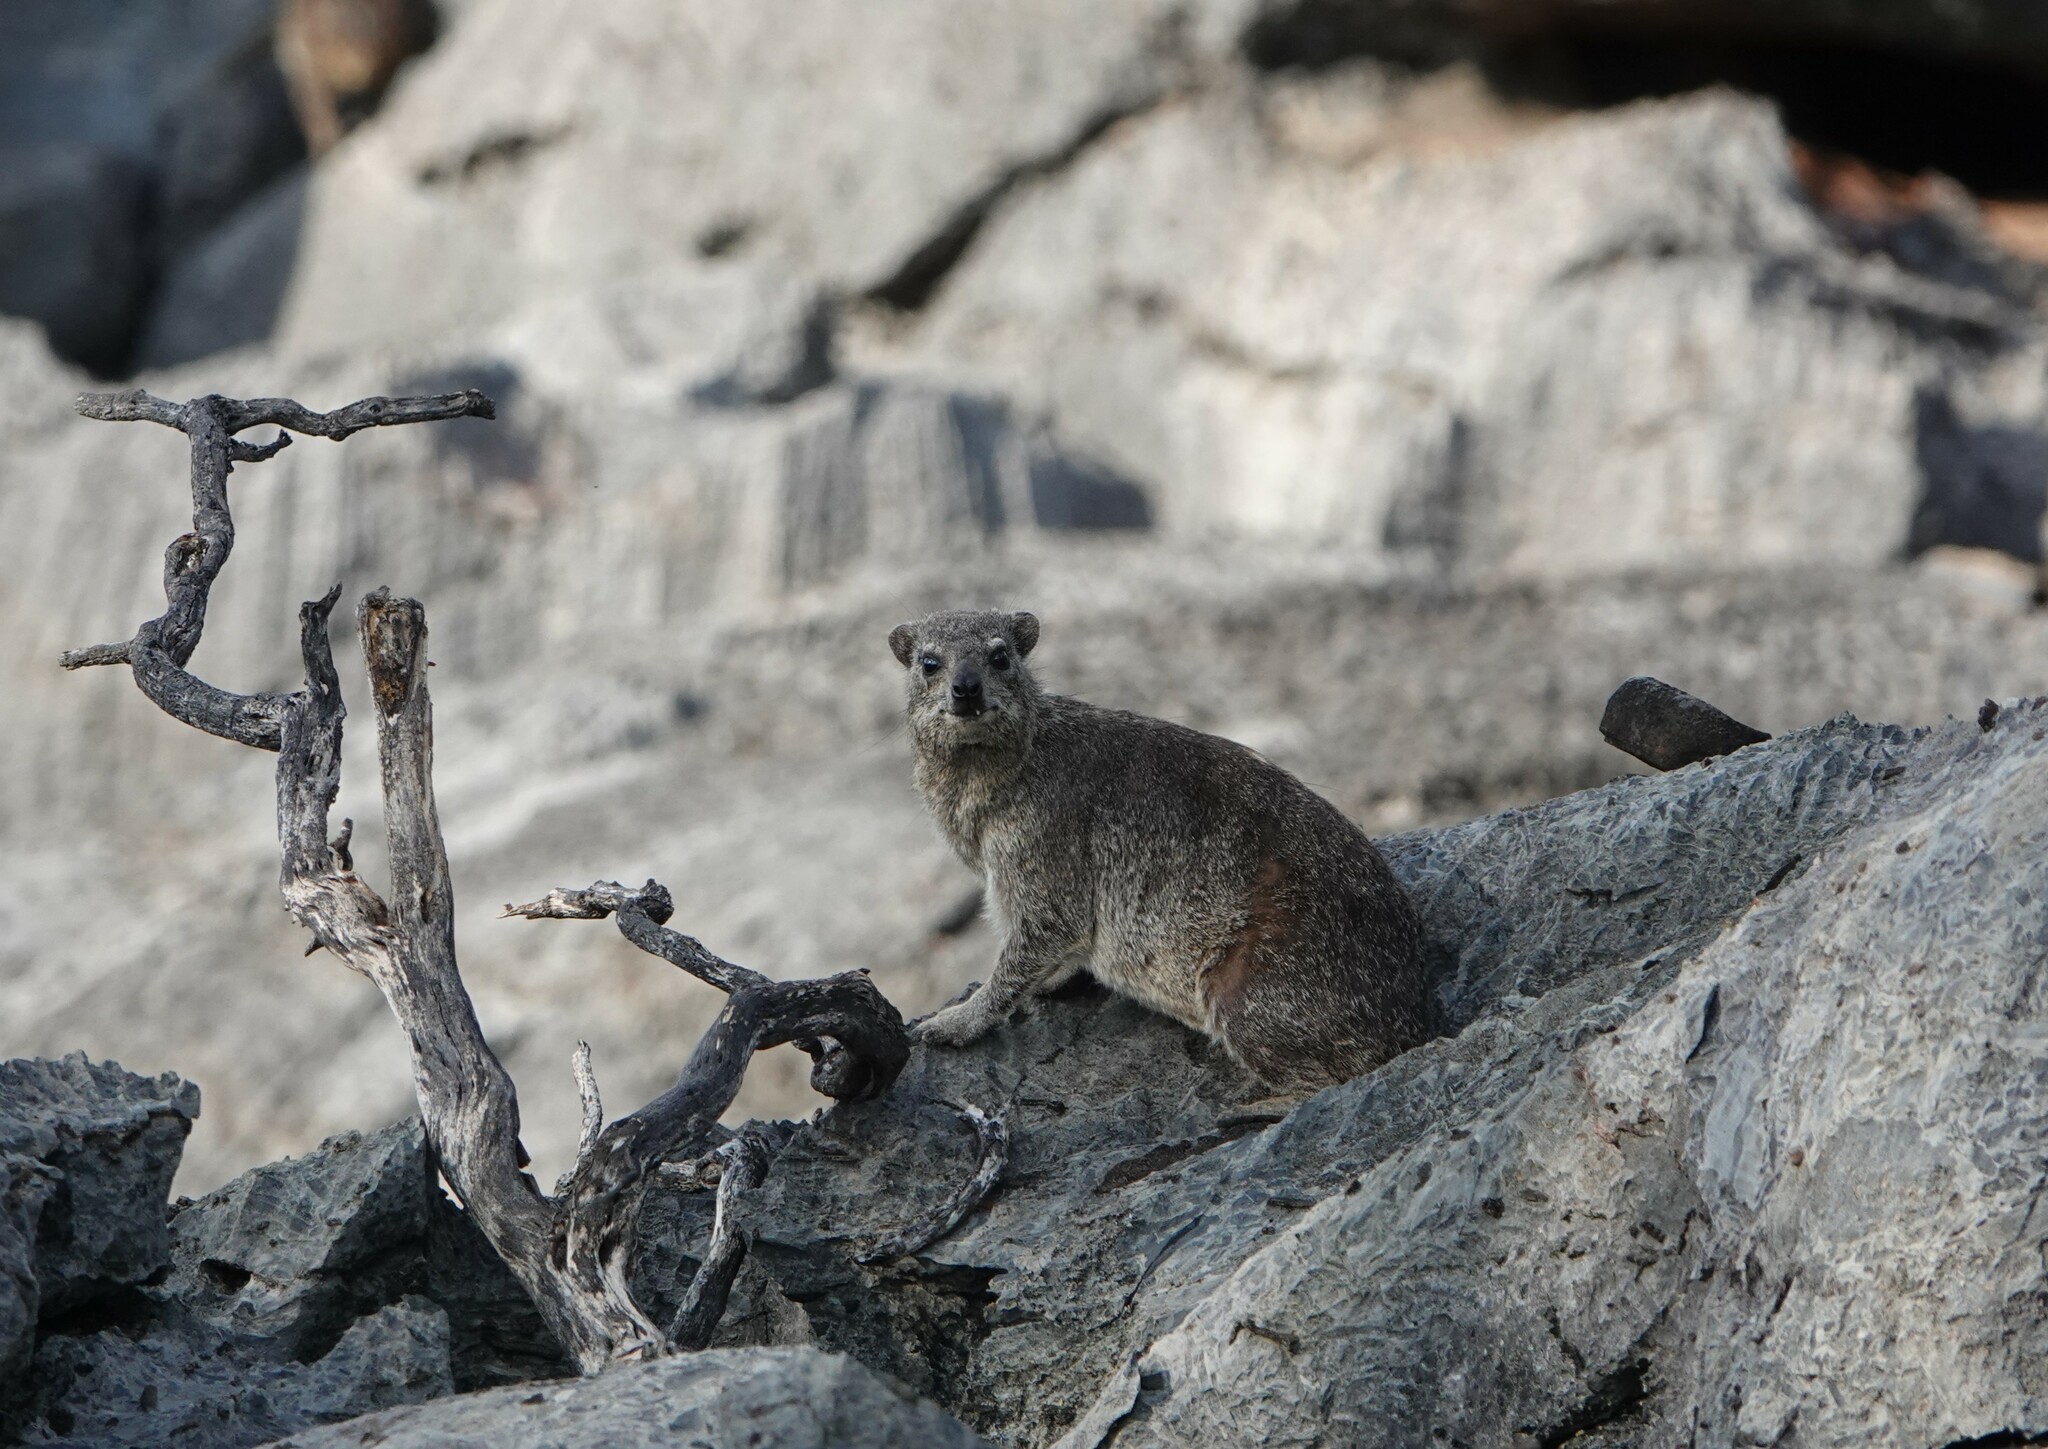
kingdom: Animalia
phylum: Chordata
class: Mammalia
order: Hyracoidea
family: Procaviidae
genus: Procavia
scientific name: Procavia capensis
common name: Rock hyrax
